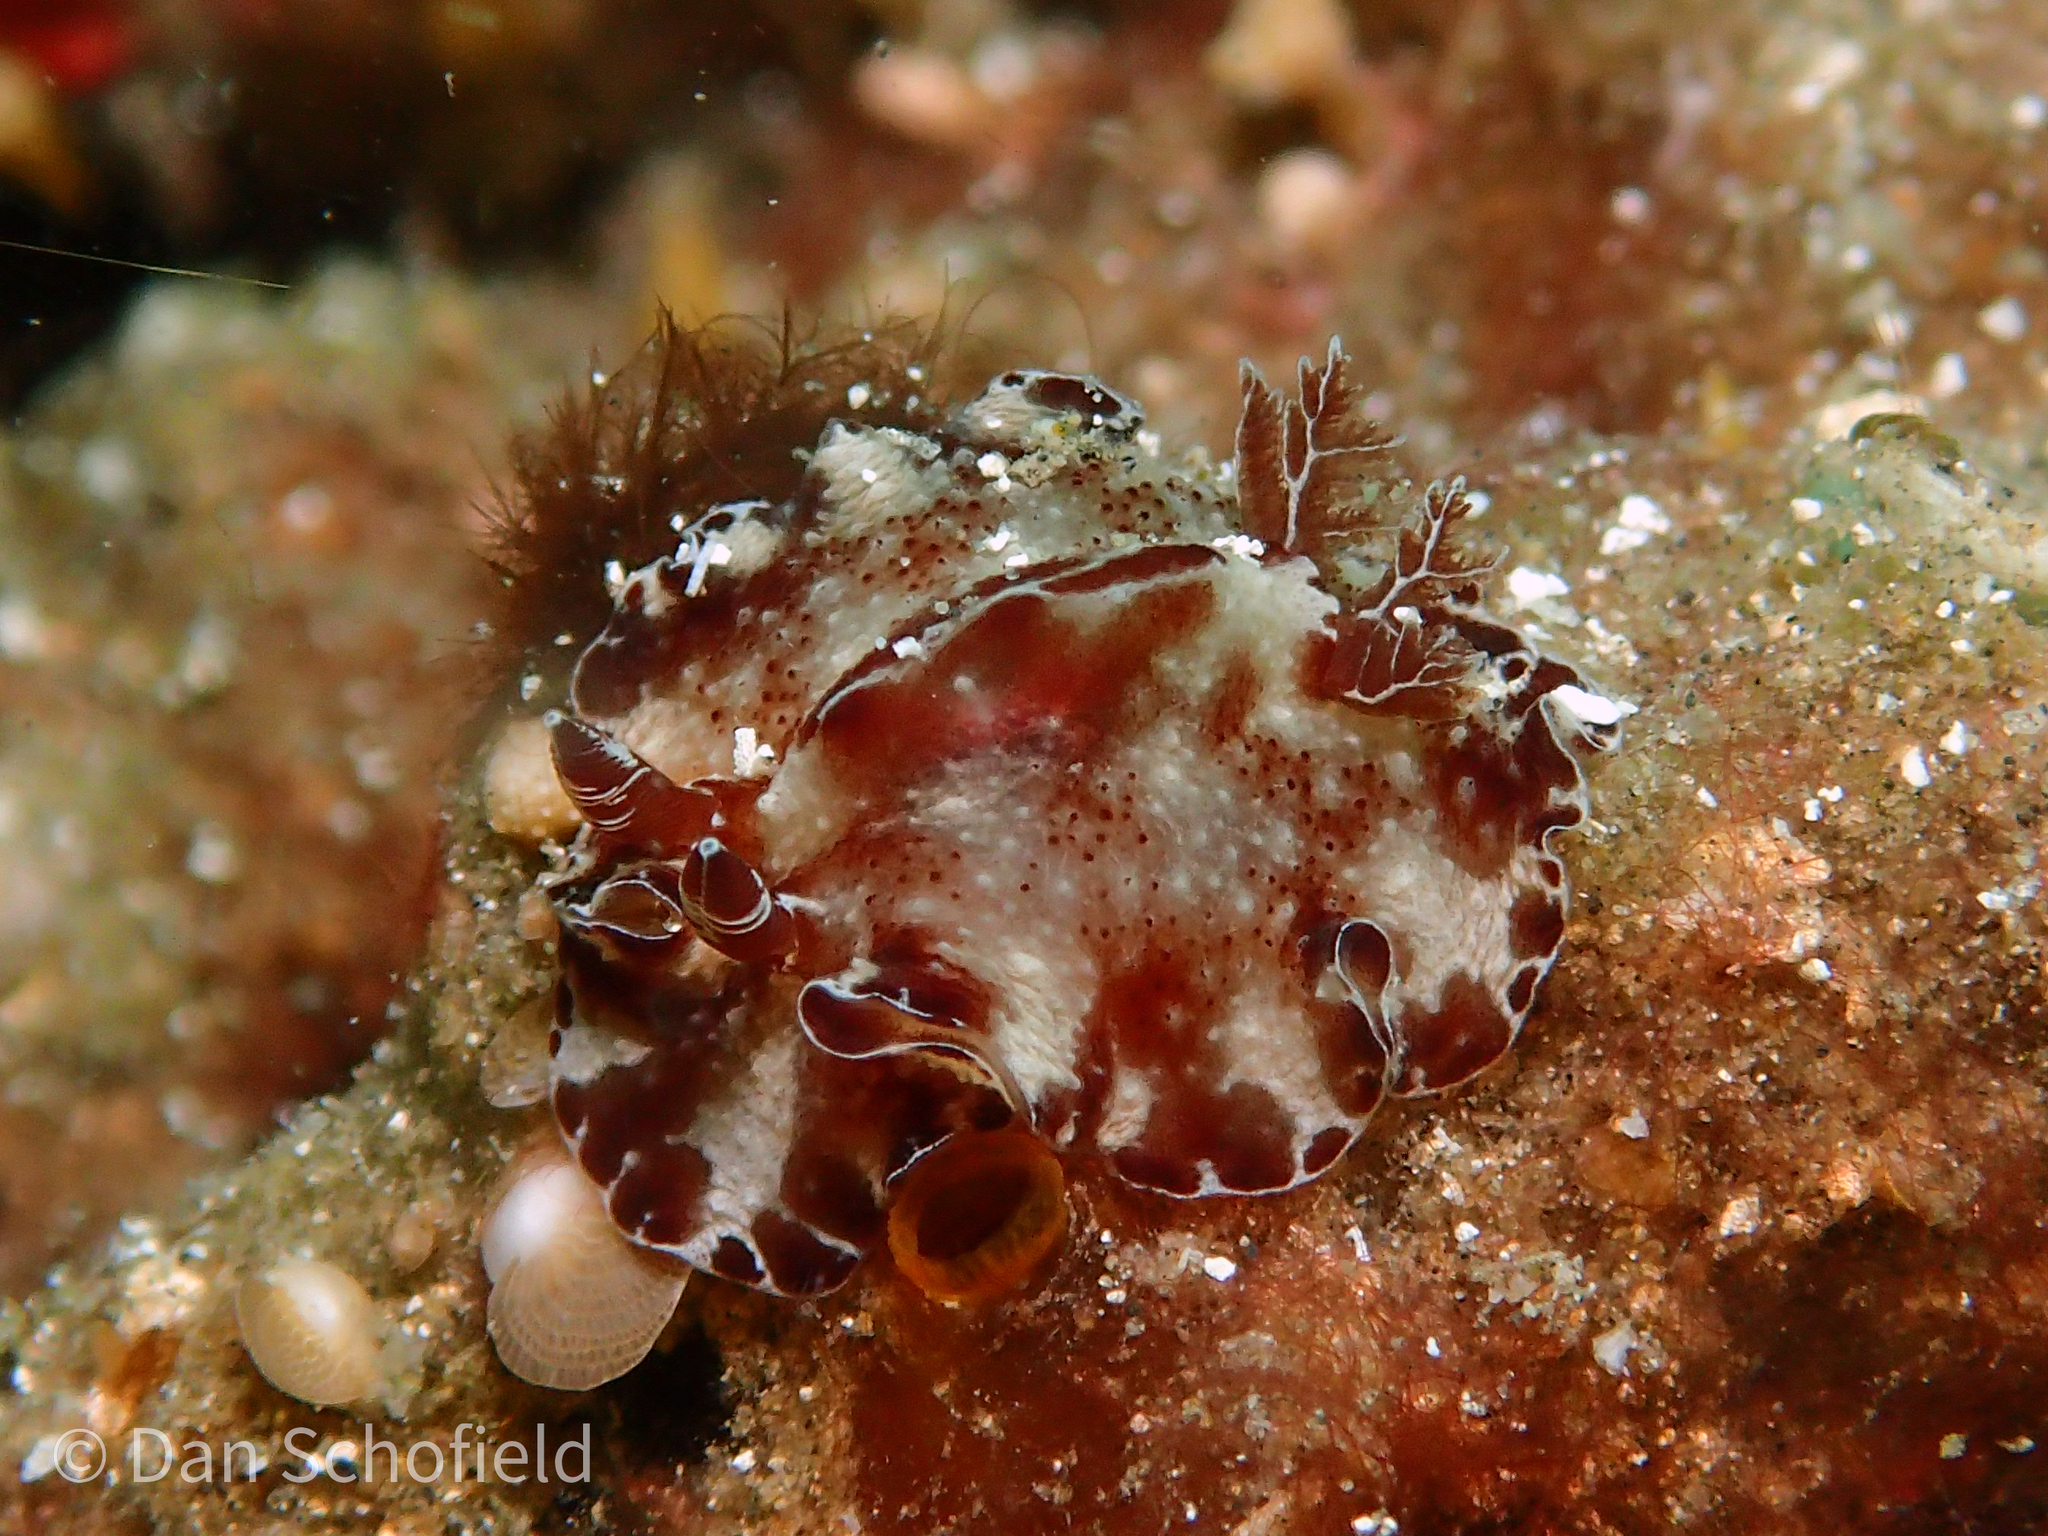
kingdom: Animalia
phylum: Mollusca
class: Gastropoda
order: Nudibranchia
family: Discodorididae
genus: Discodoris
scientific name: Discodoris boholiensis
